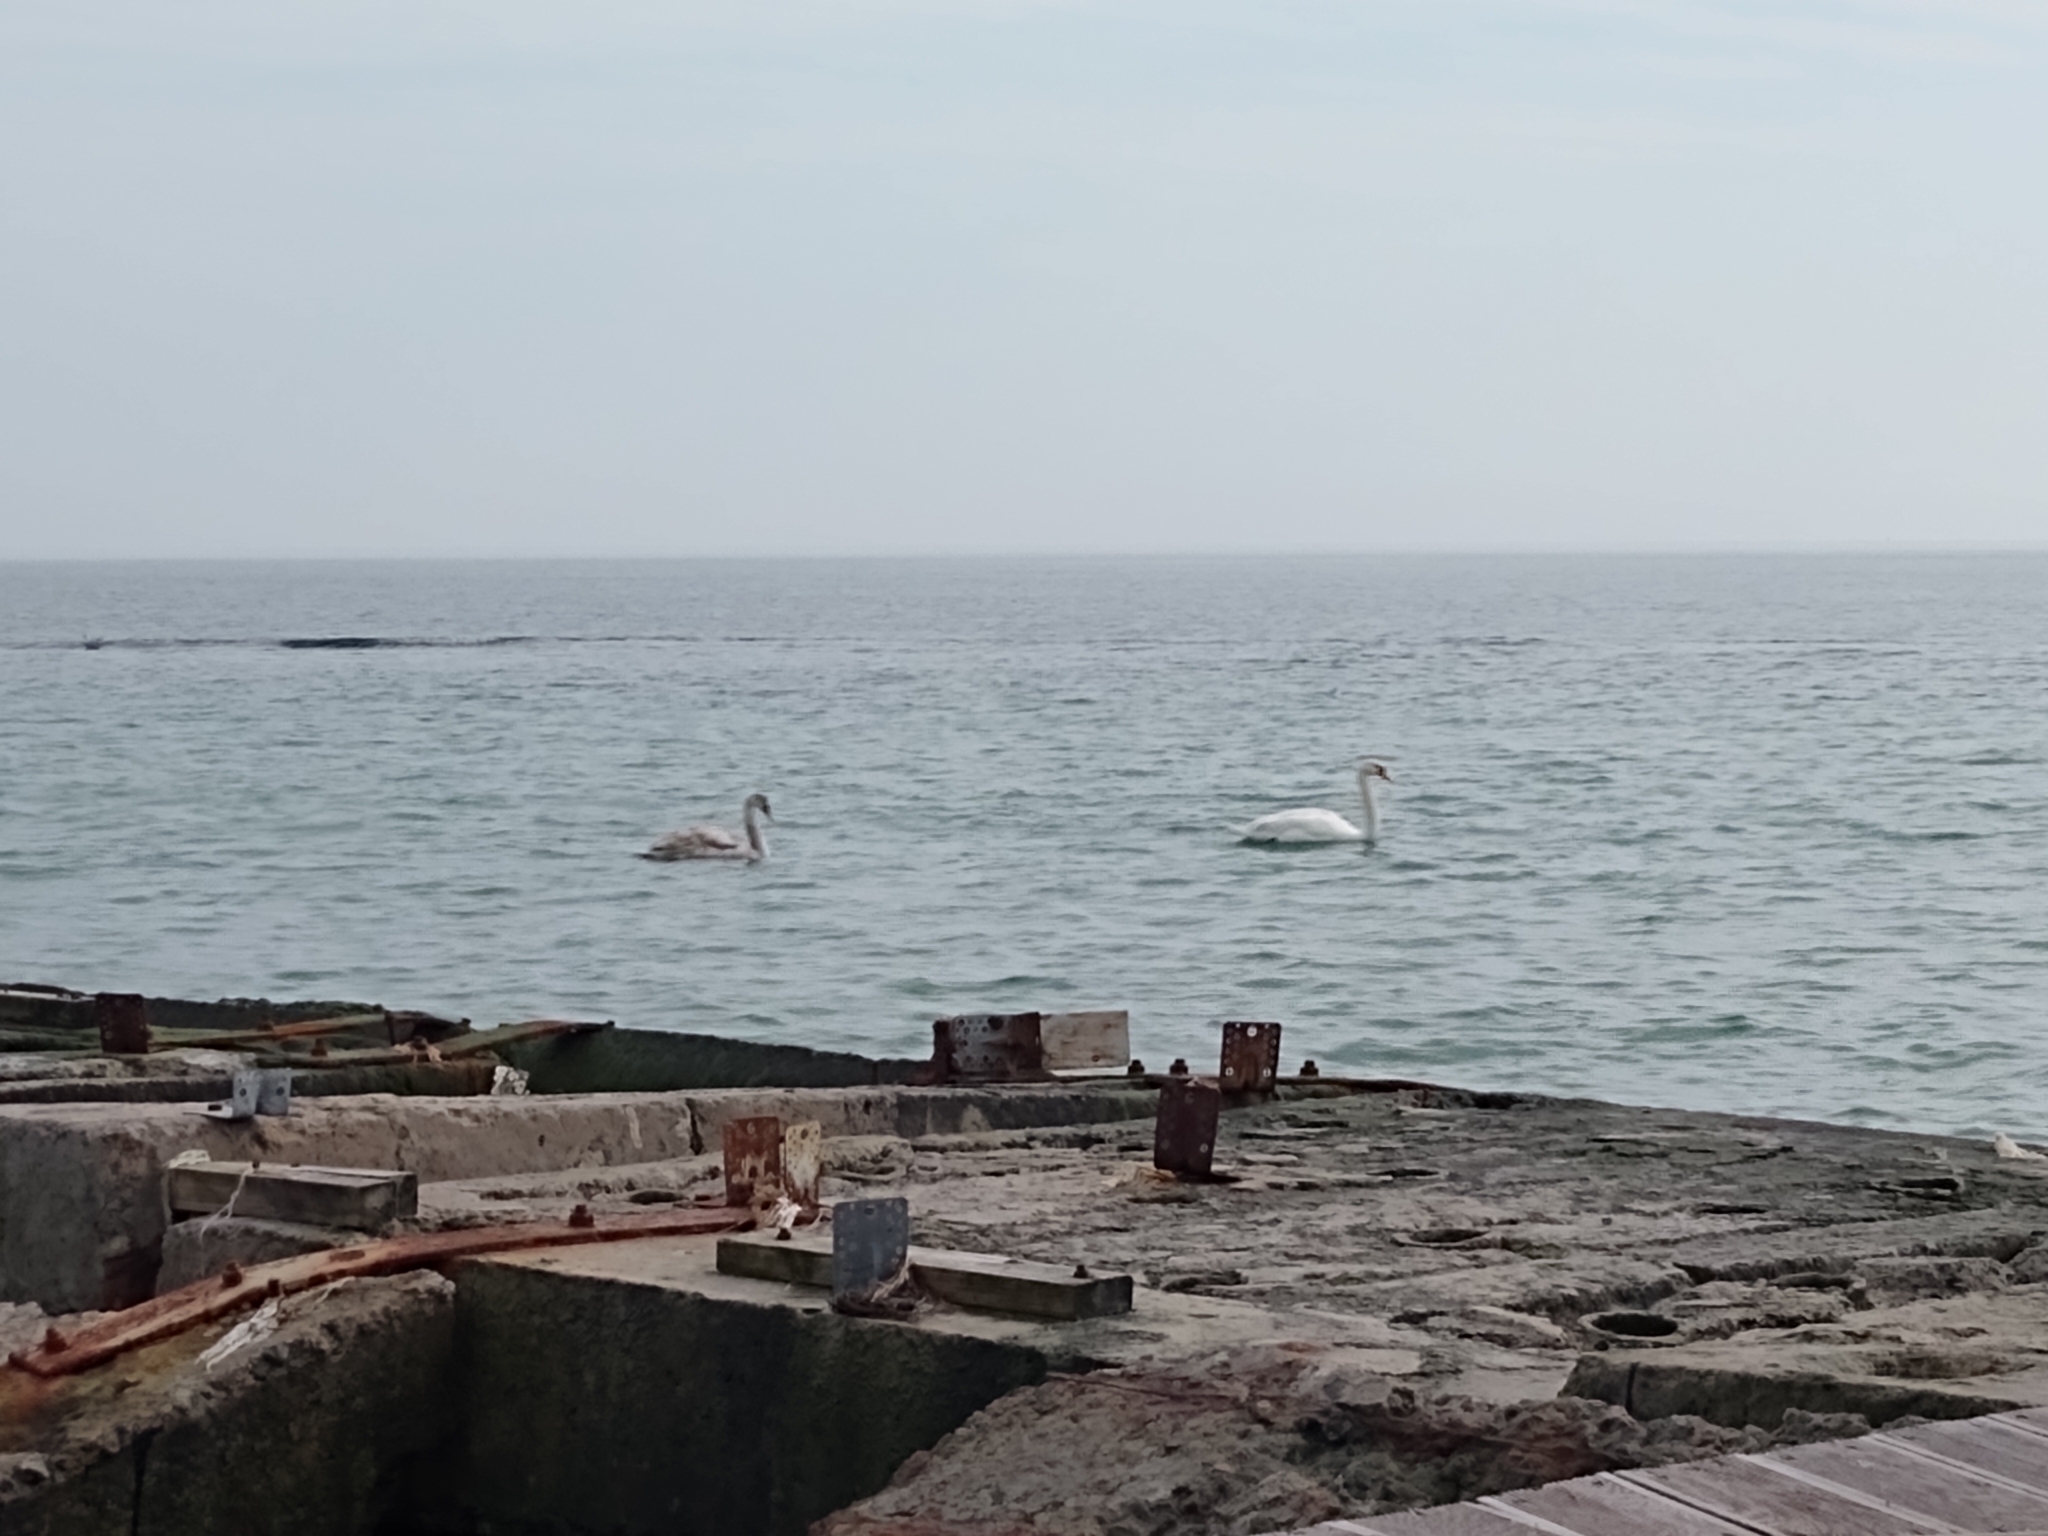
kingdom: Animalia
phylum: Chordata
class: Aves
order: Anseriformes
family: Anatidae
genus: Cygnus
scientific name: Cygnus olor
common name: Mute swan
